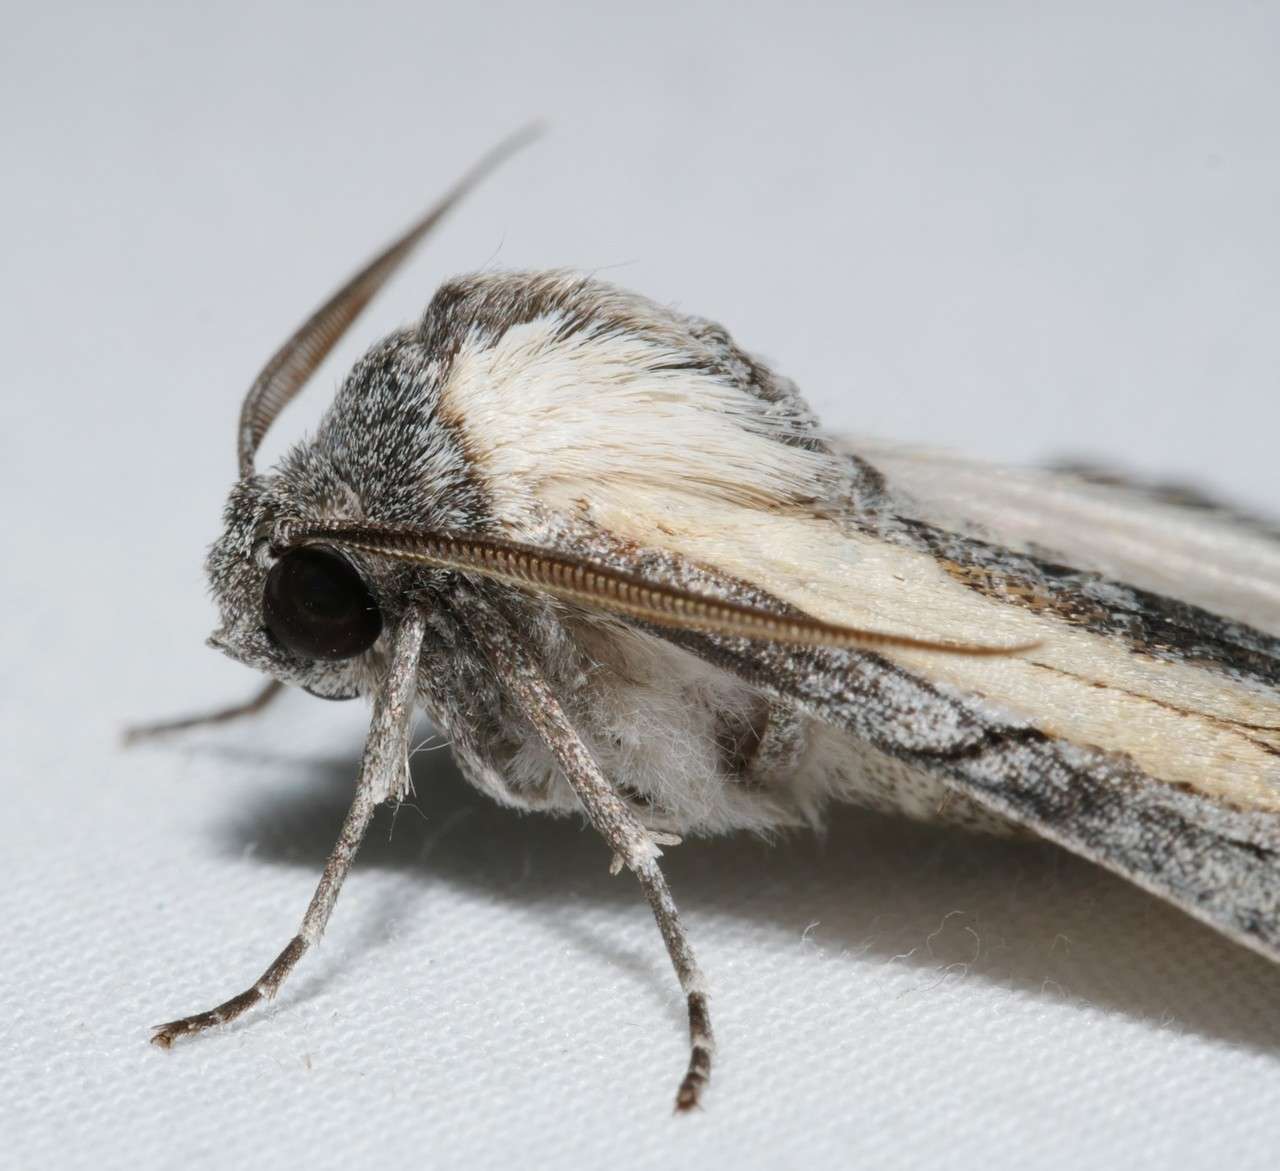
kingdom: Animalia
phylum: Arthropoda
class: Insecta
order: Lepidoptera
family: Geometridae
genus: Stibaractis
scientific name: Stibaractis melanotoxa
